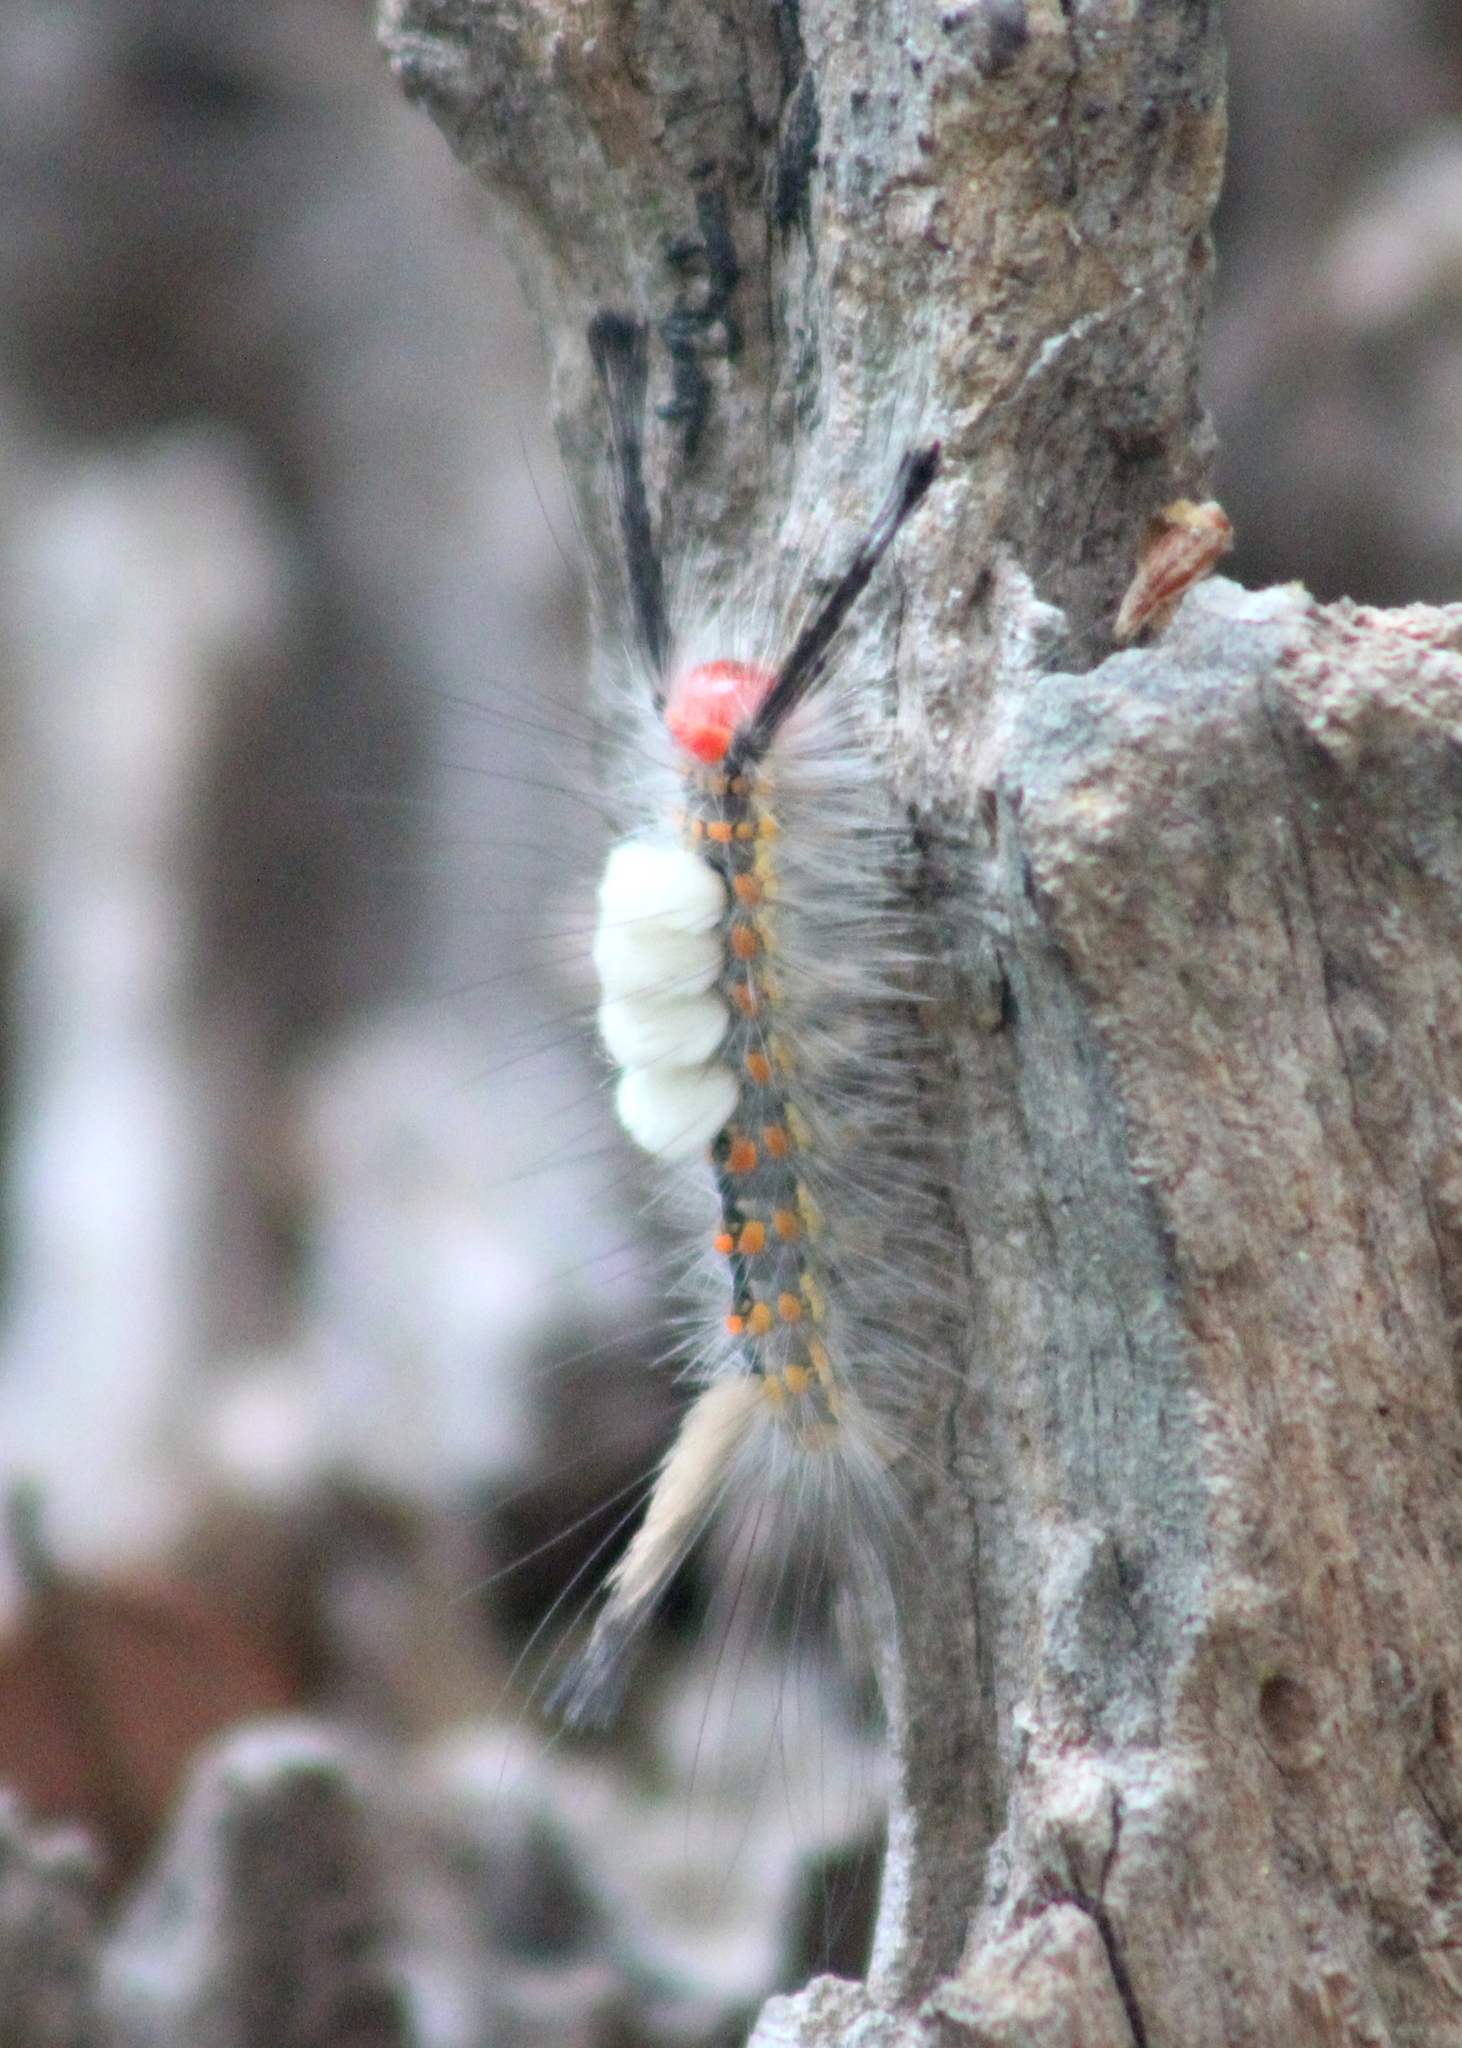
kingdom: Animalia
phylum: Arthropoda
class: Insecta
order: Lepidoptera
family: Erebidae
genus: Orgyia
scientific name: Orgyia detrita
